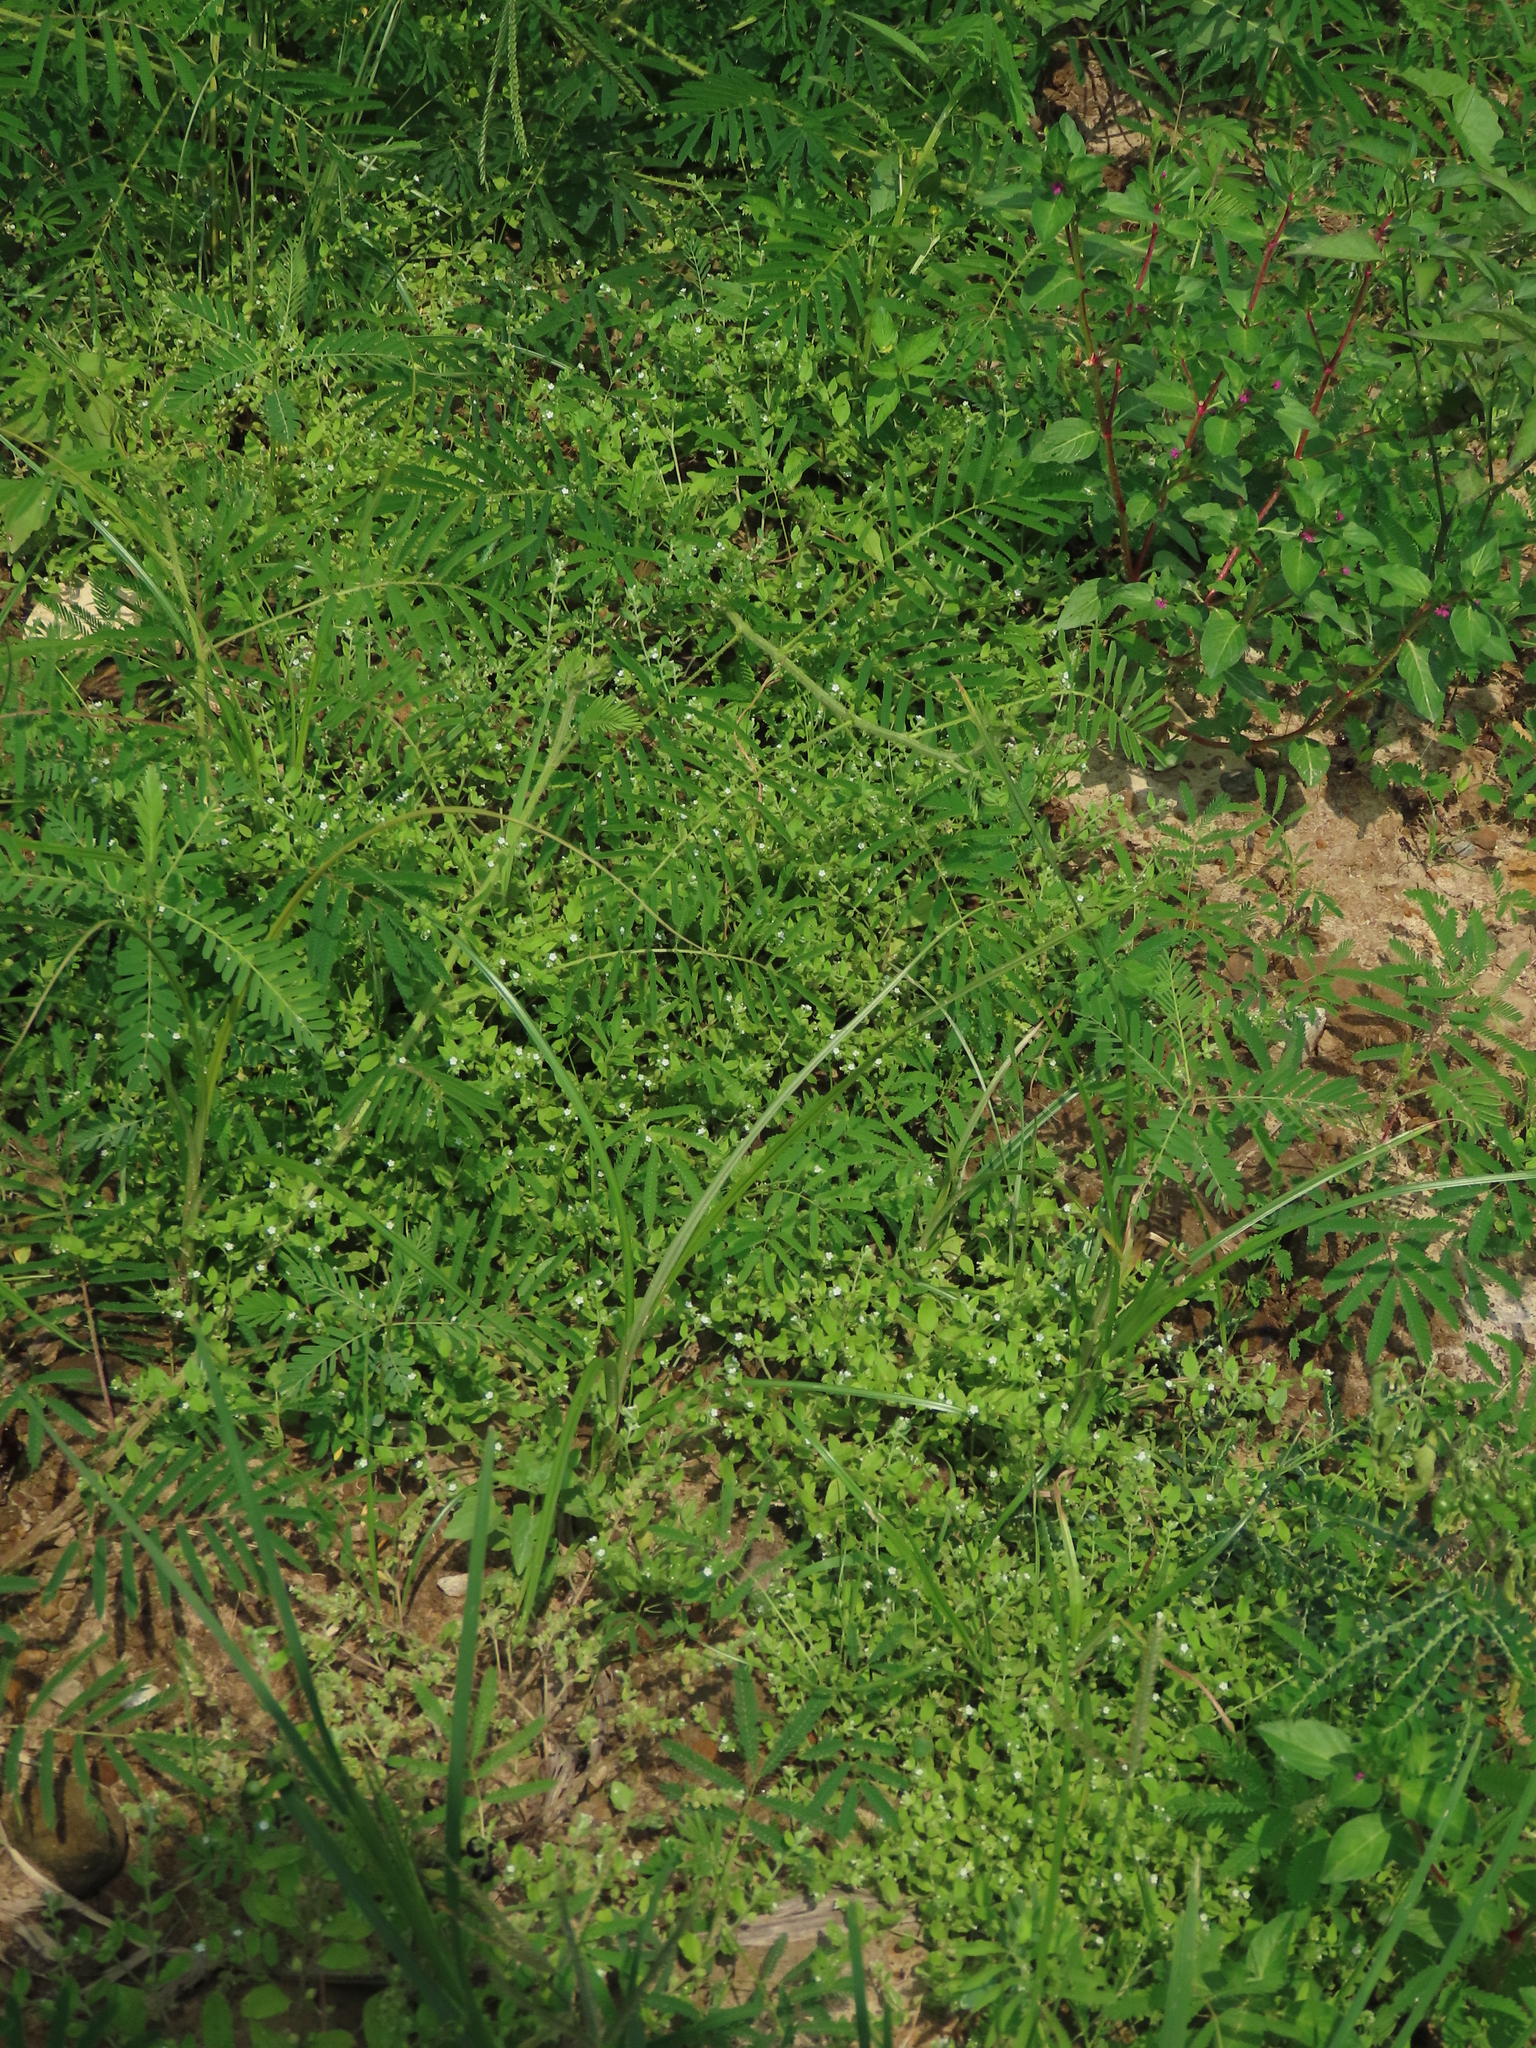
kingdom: Plantae
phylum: Tracheophyta
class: Magnoliopsida
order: Boraginales
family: Boraginaceae
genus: Bothriospermum
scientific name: Bothriospermum zeylanicum
